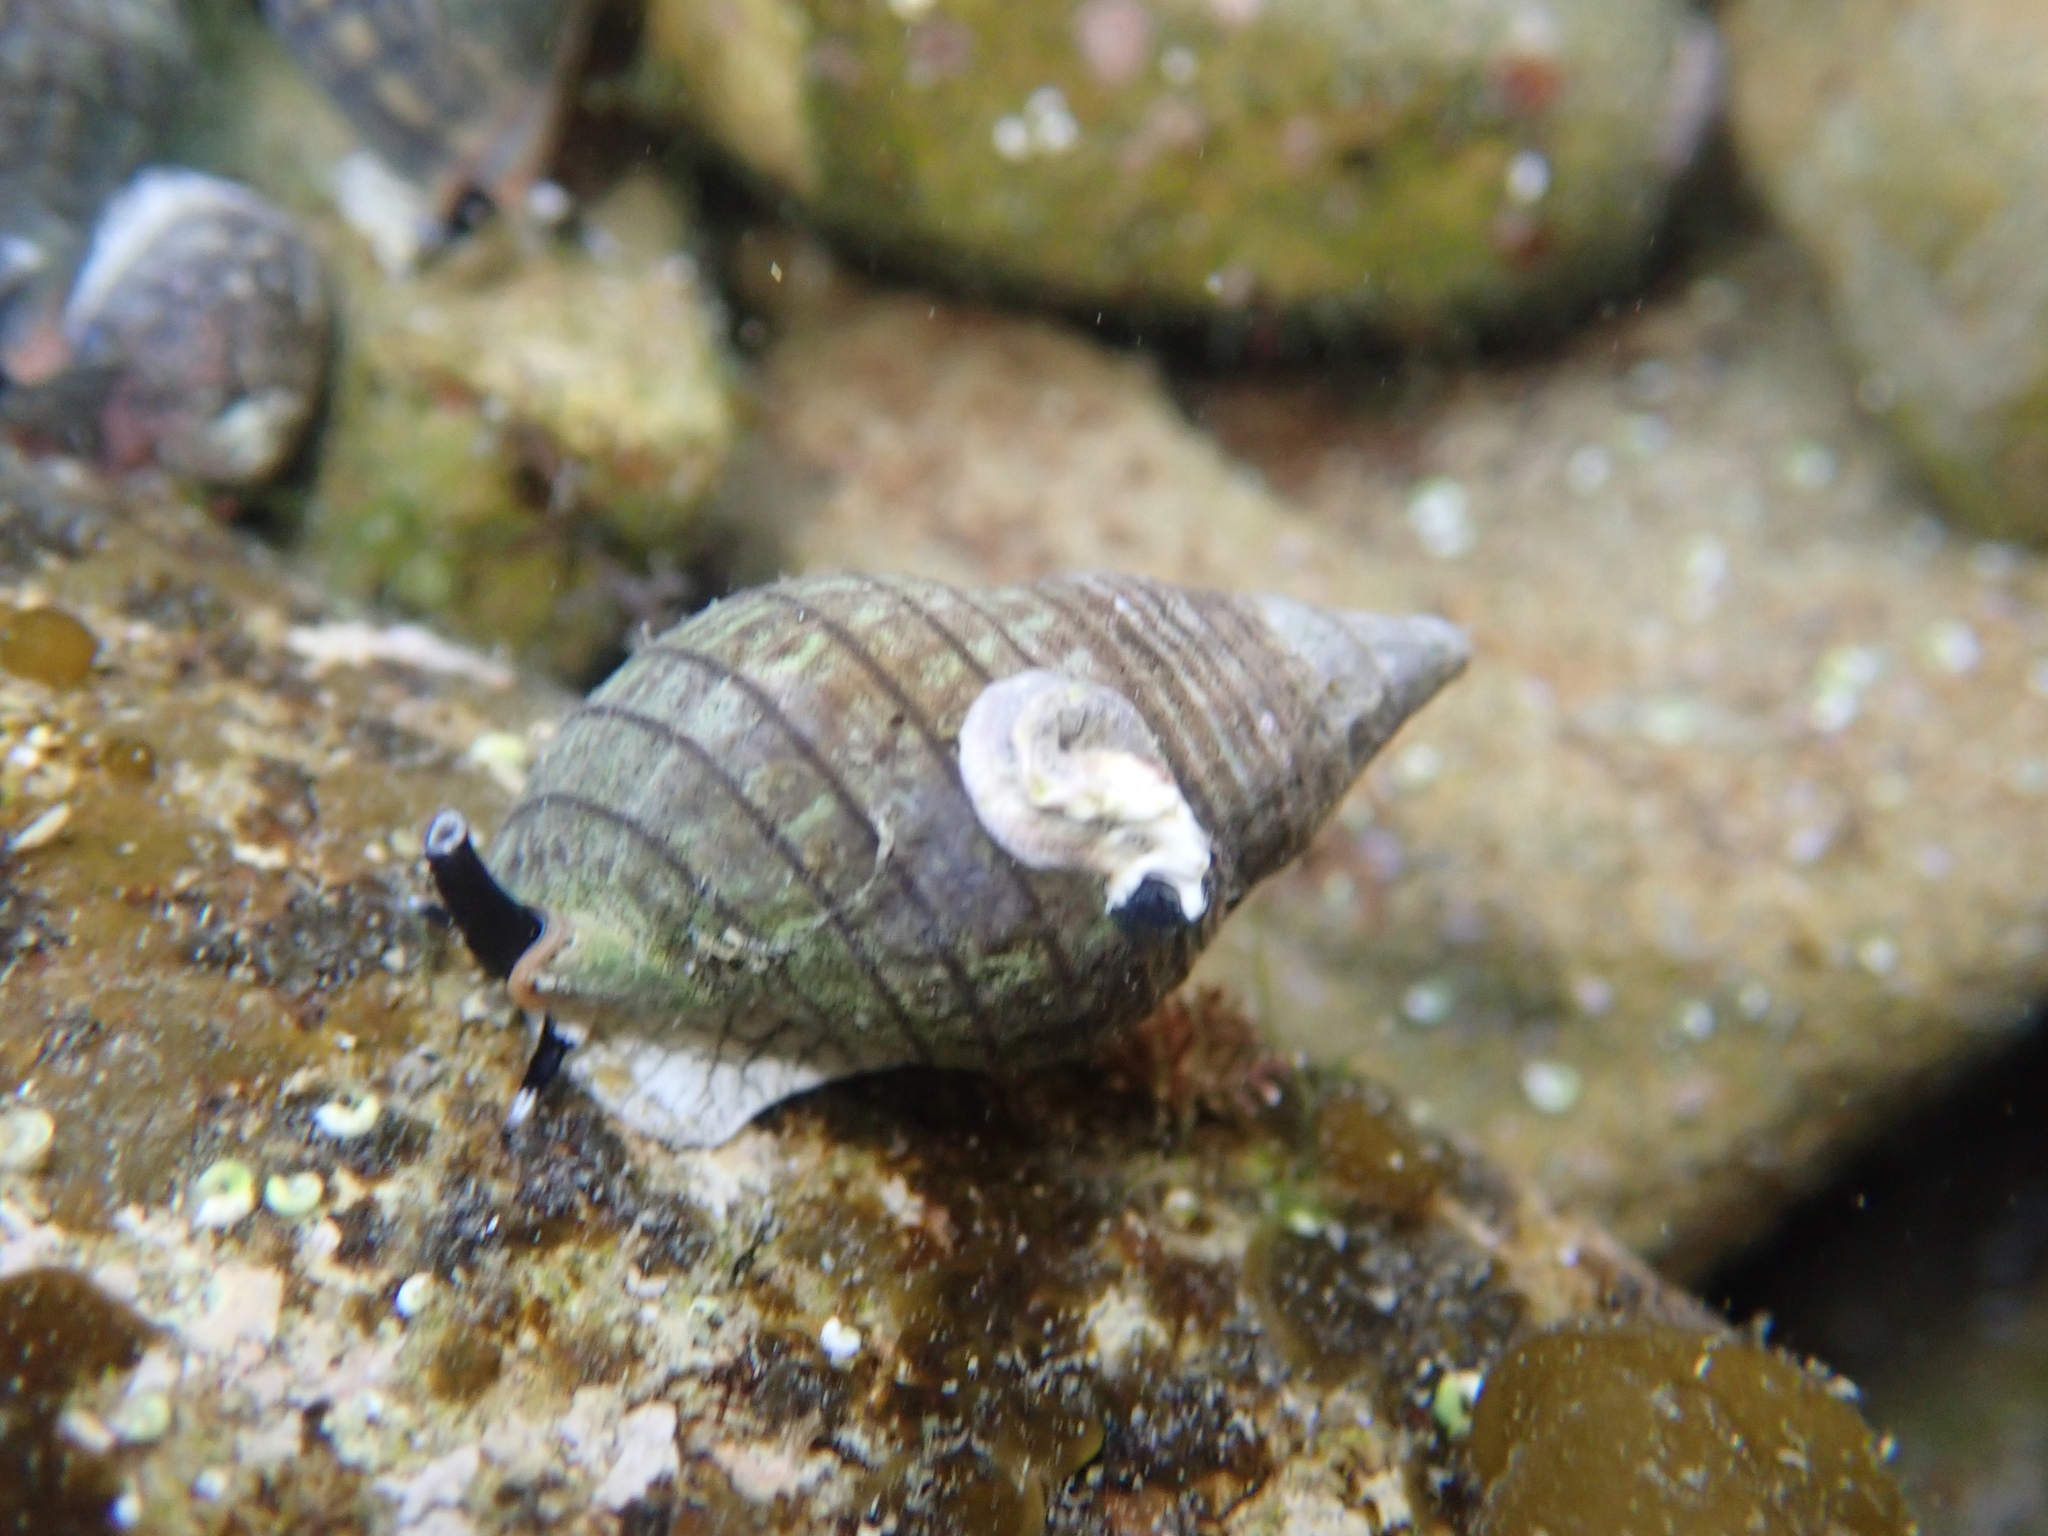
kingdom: Animalia
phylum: Annelida
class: Polychaeta
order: Sabellida
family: Serpulidae
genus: Spirobranchus
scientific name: Spirobranchus cariniferus
